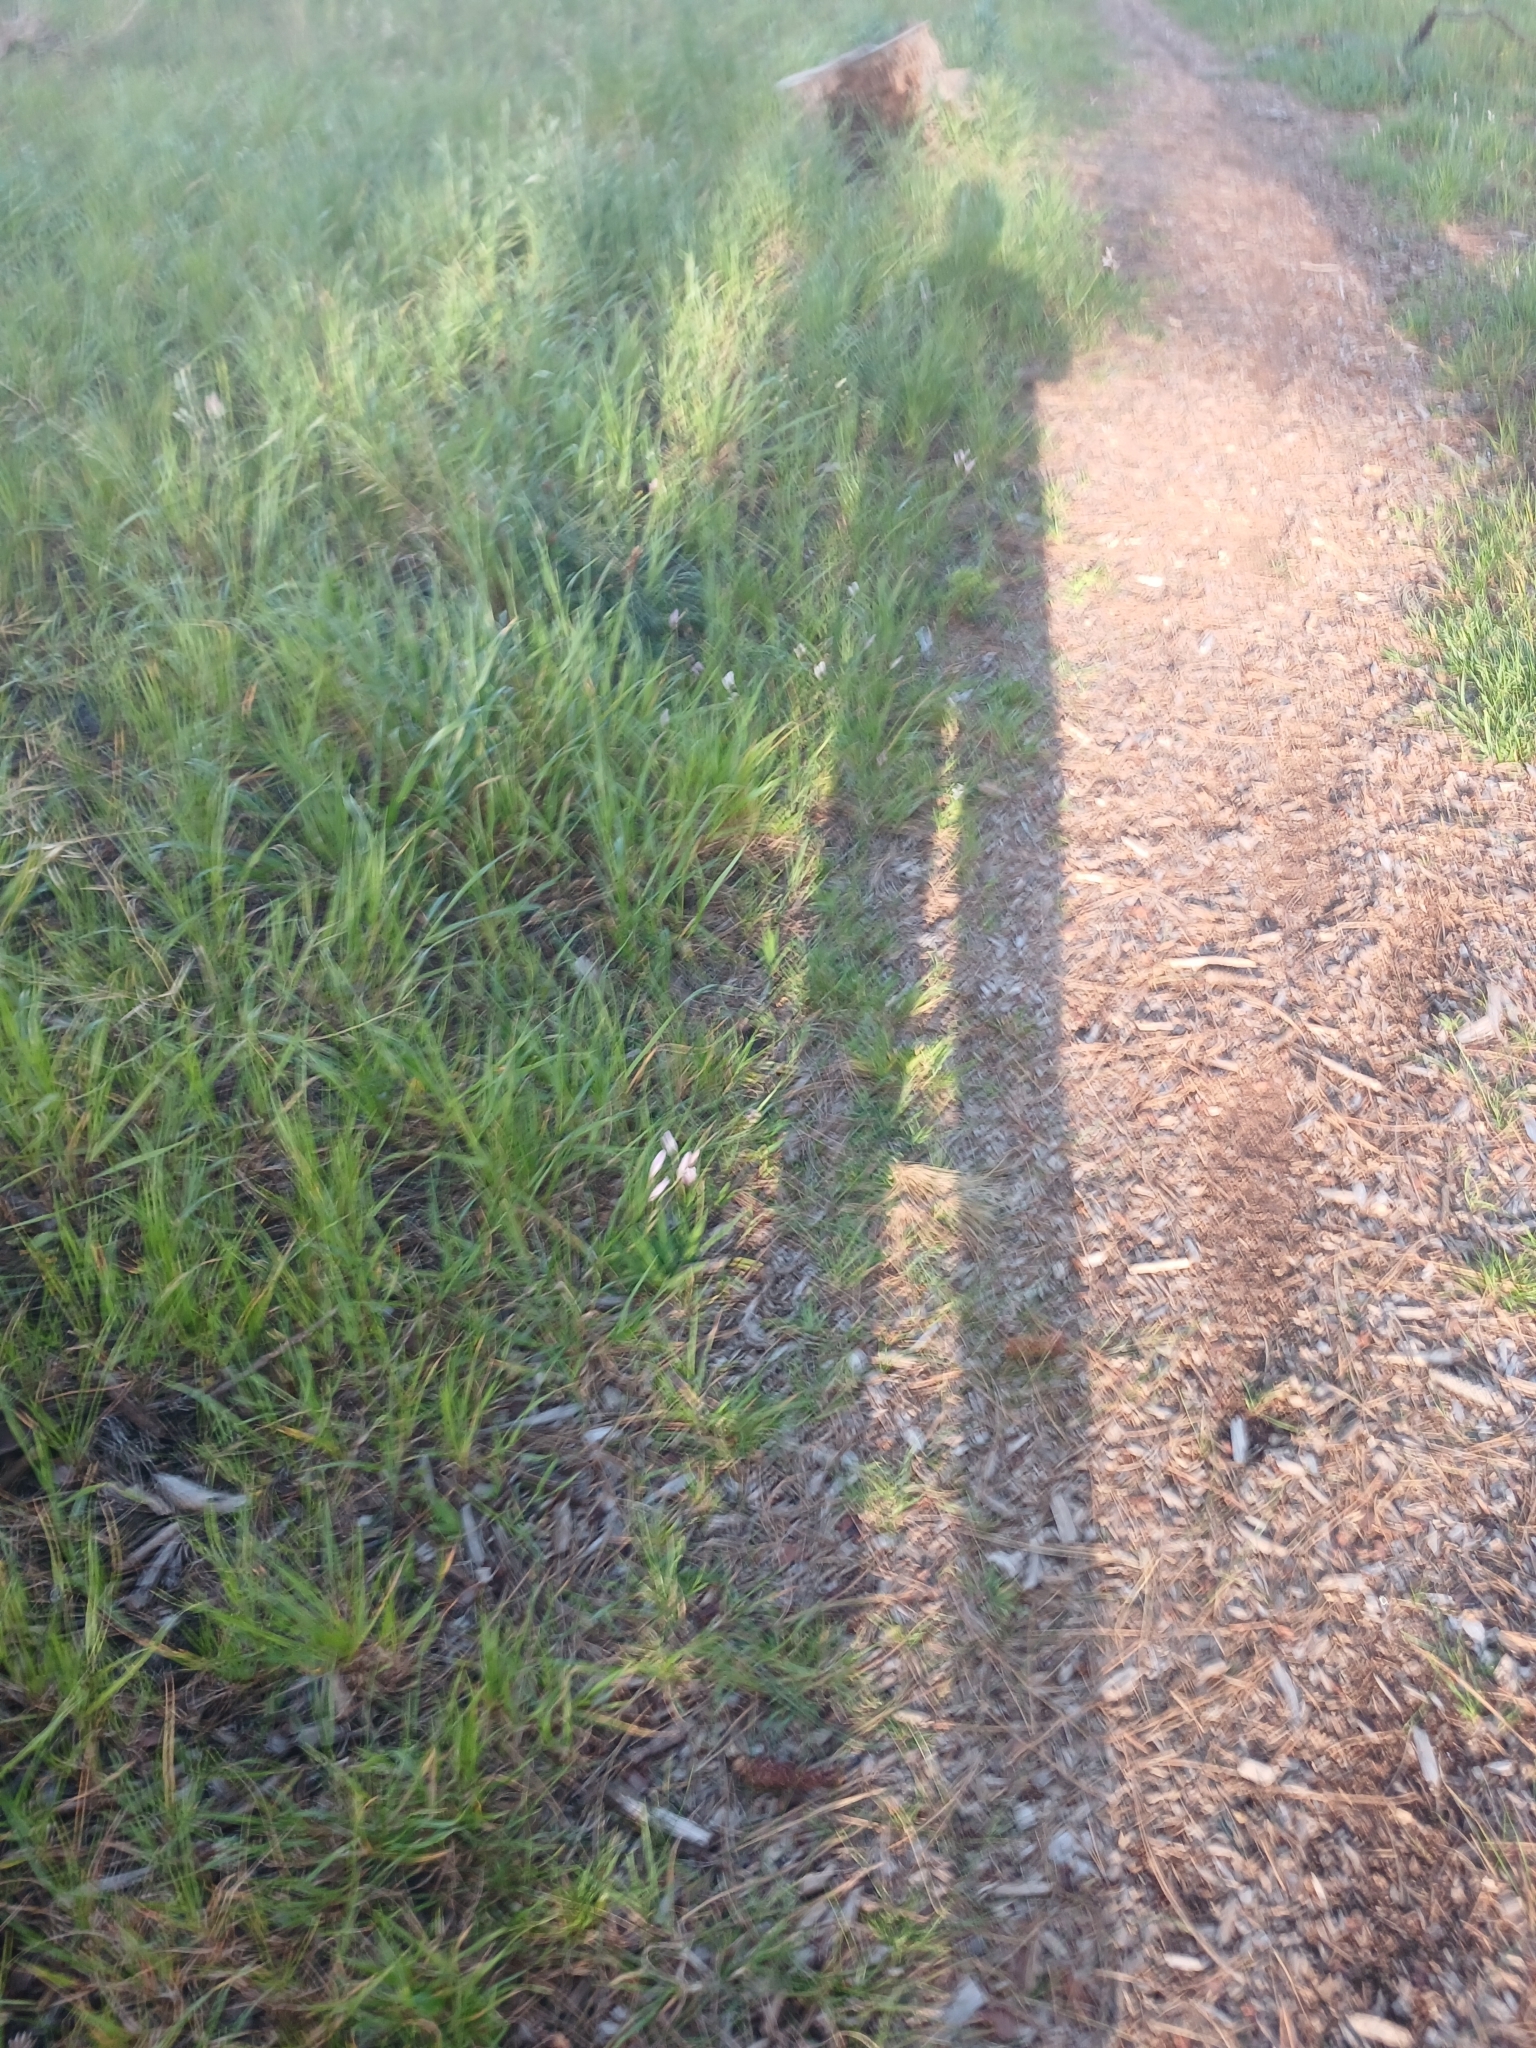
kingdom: Plantae
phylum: Tracheophyta
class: Liliopsida
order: Asparagales
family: Iridaceae
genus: Sparaxis
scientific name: Sparaxis bulbifera
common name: Harlequin-flower
